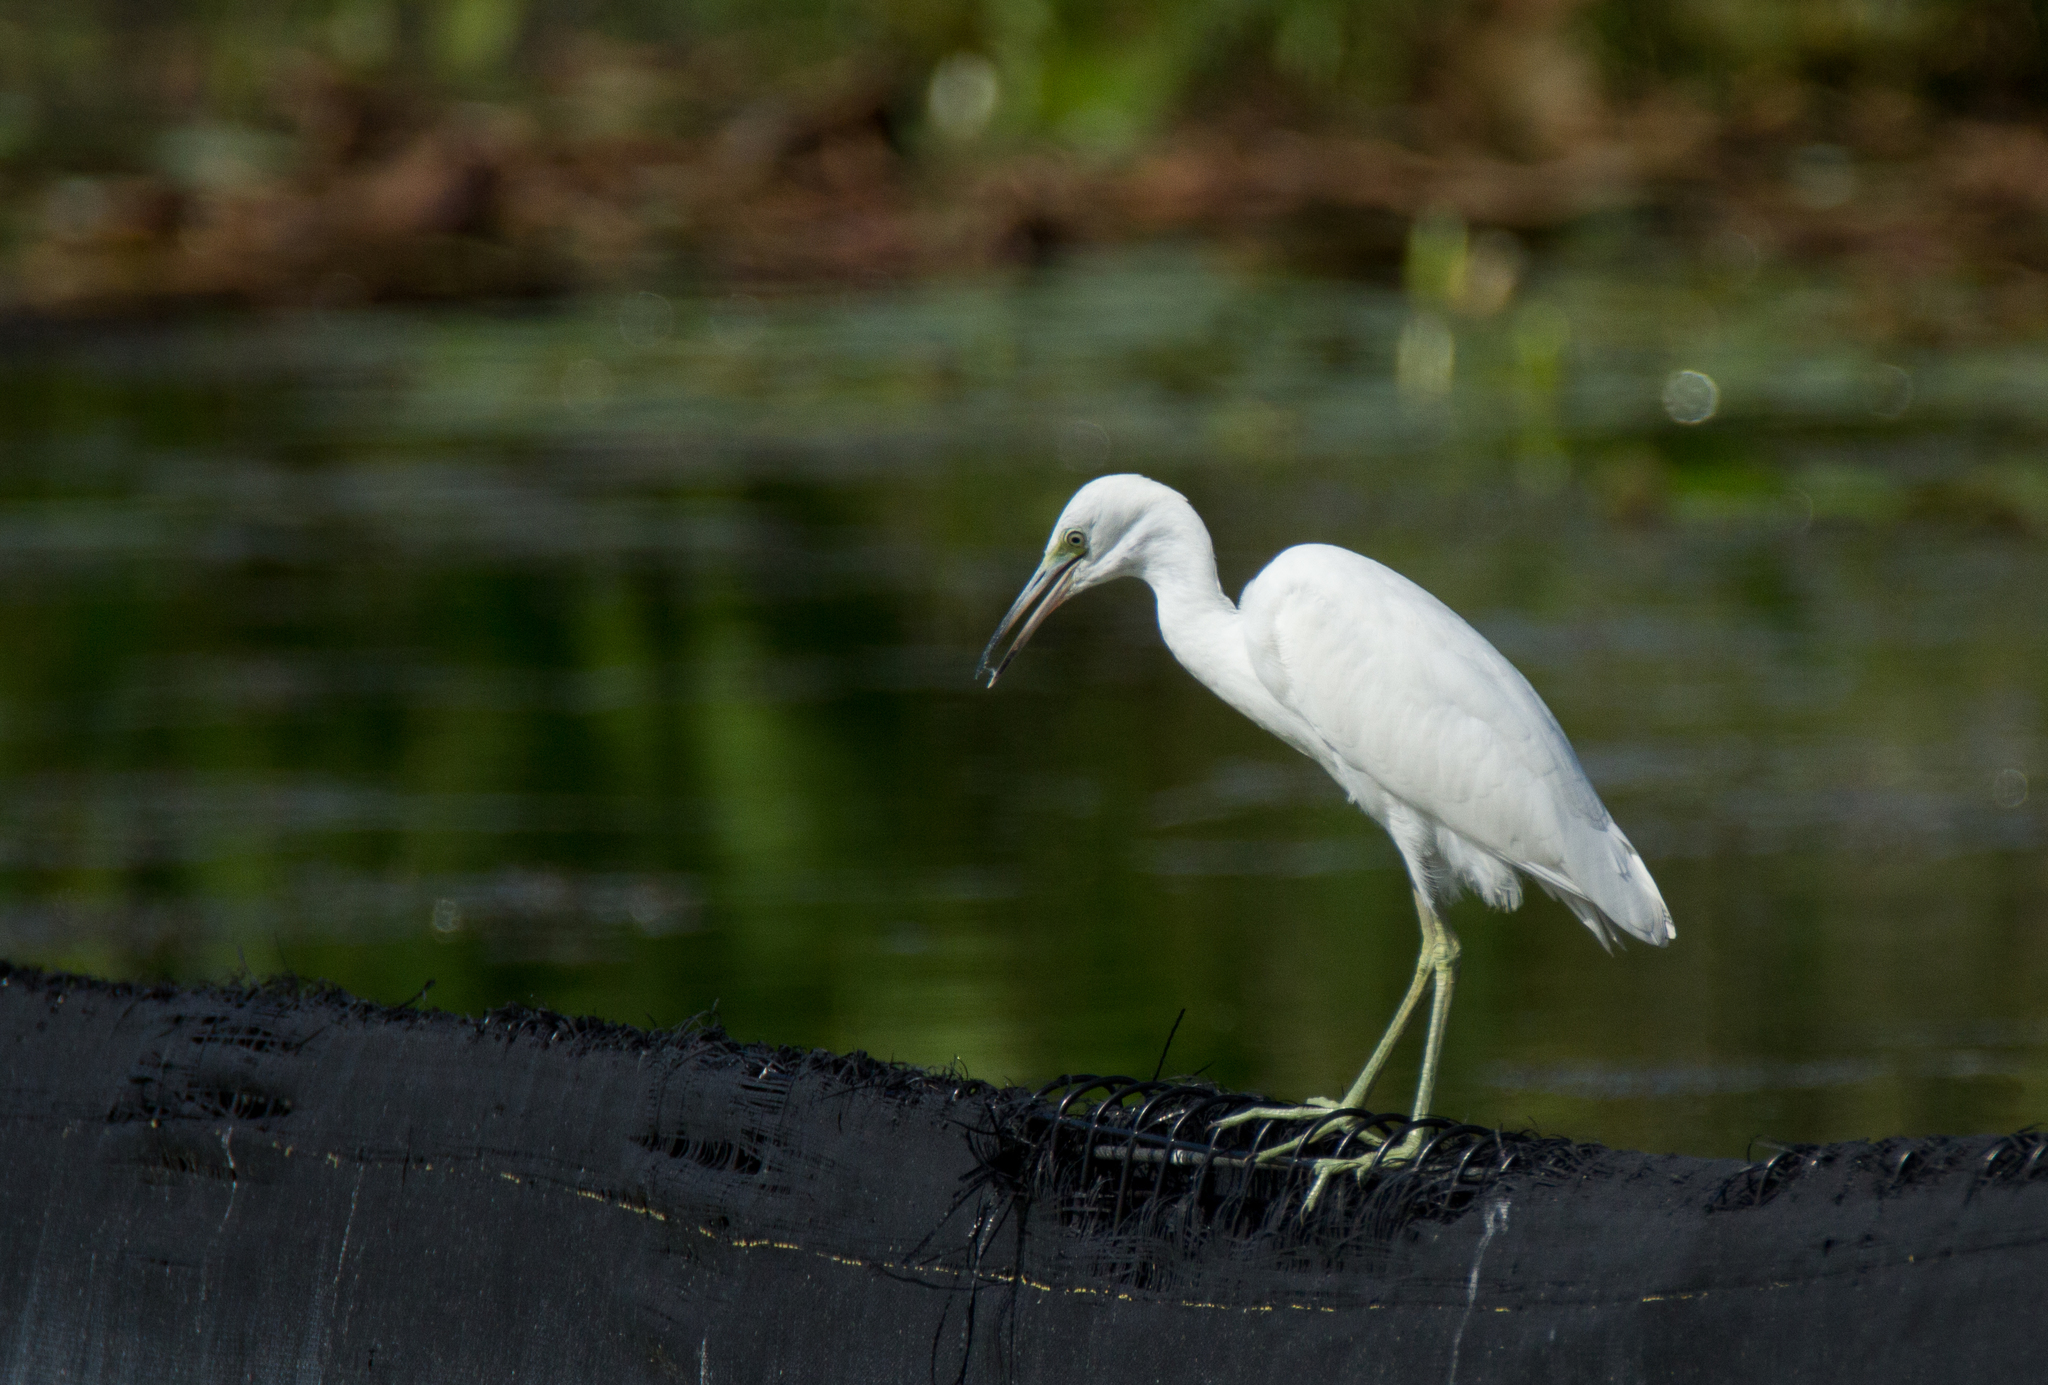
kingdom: Animalia
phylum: Chordata
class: Aves
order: Pelecaniformes
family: Ardeidae
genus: Egretta
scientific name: Egretta caerulea
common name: Little blue heron
